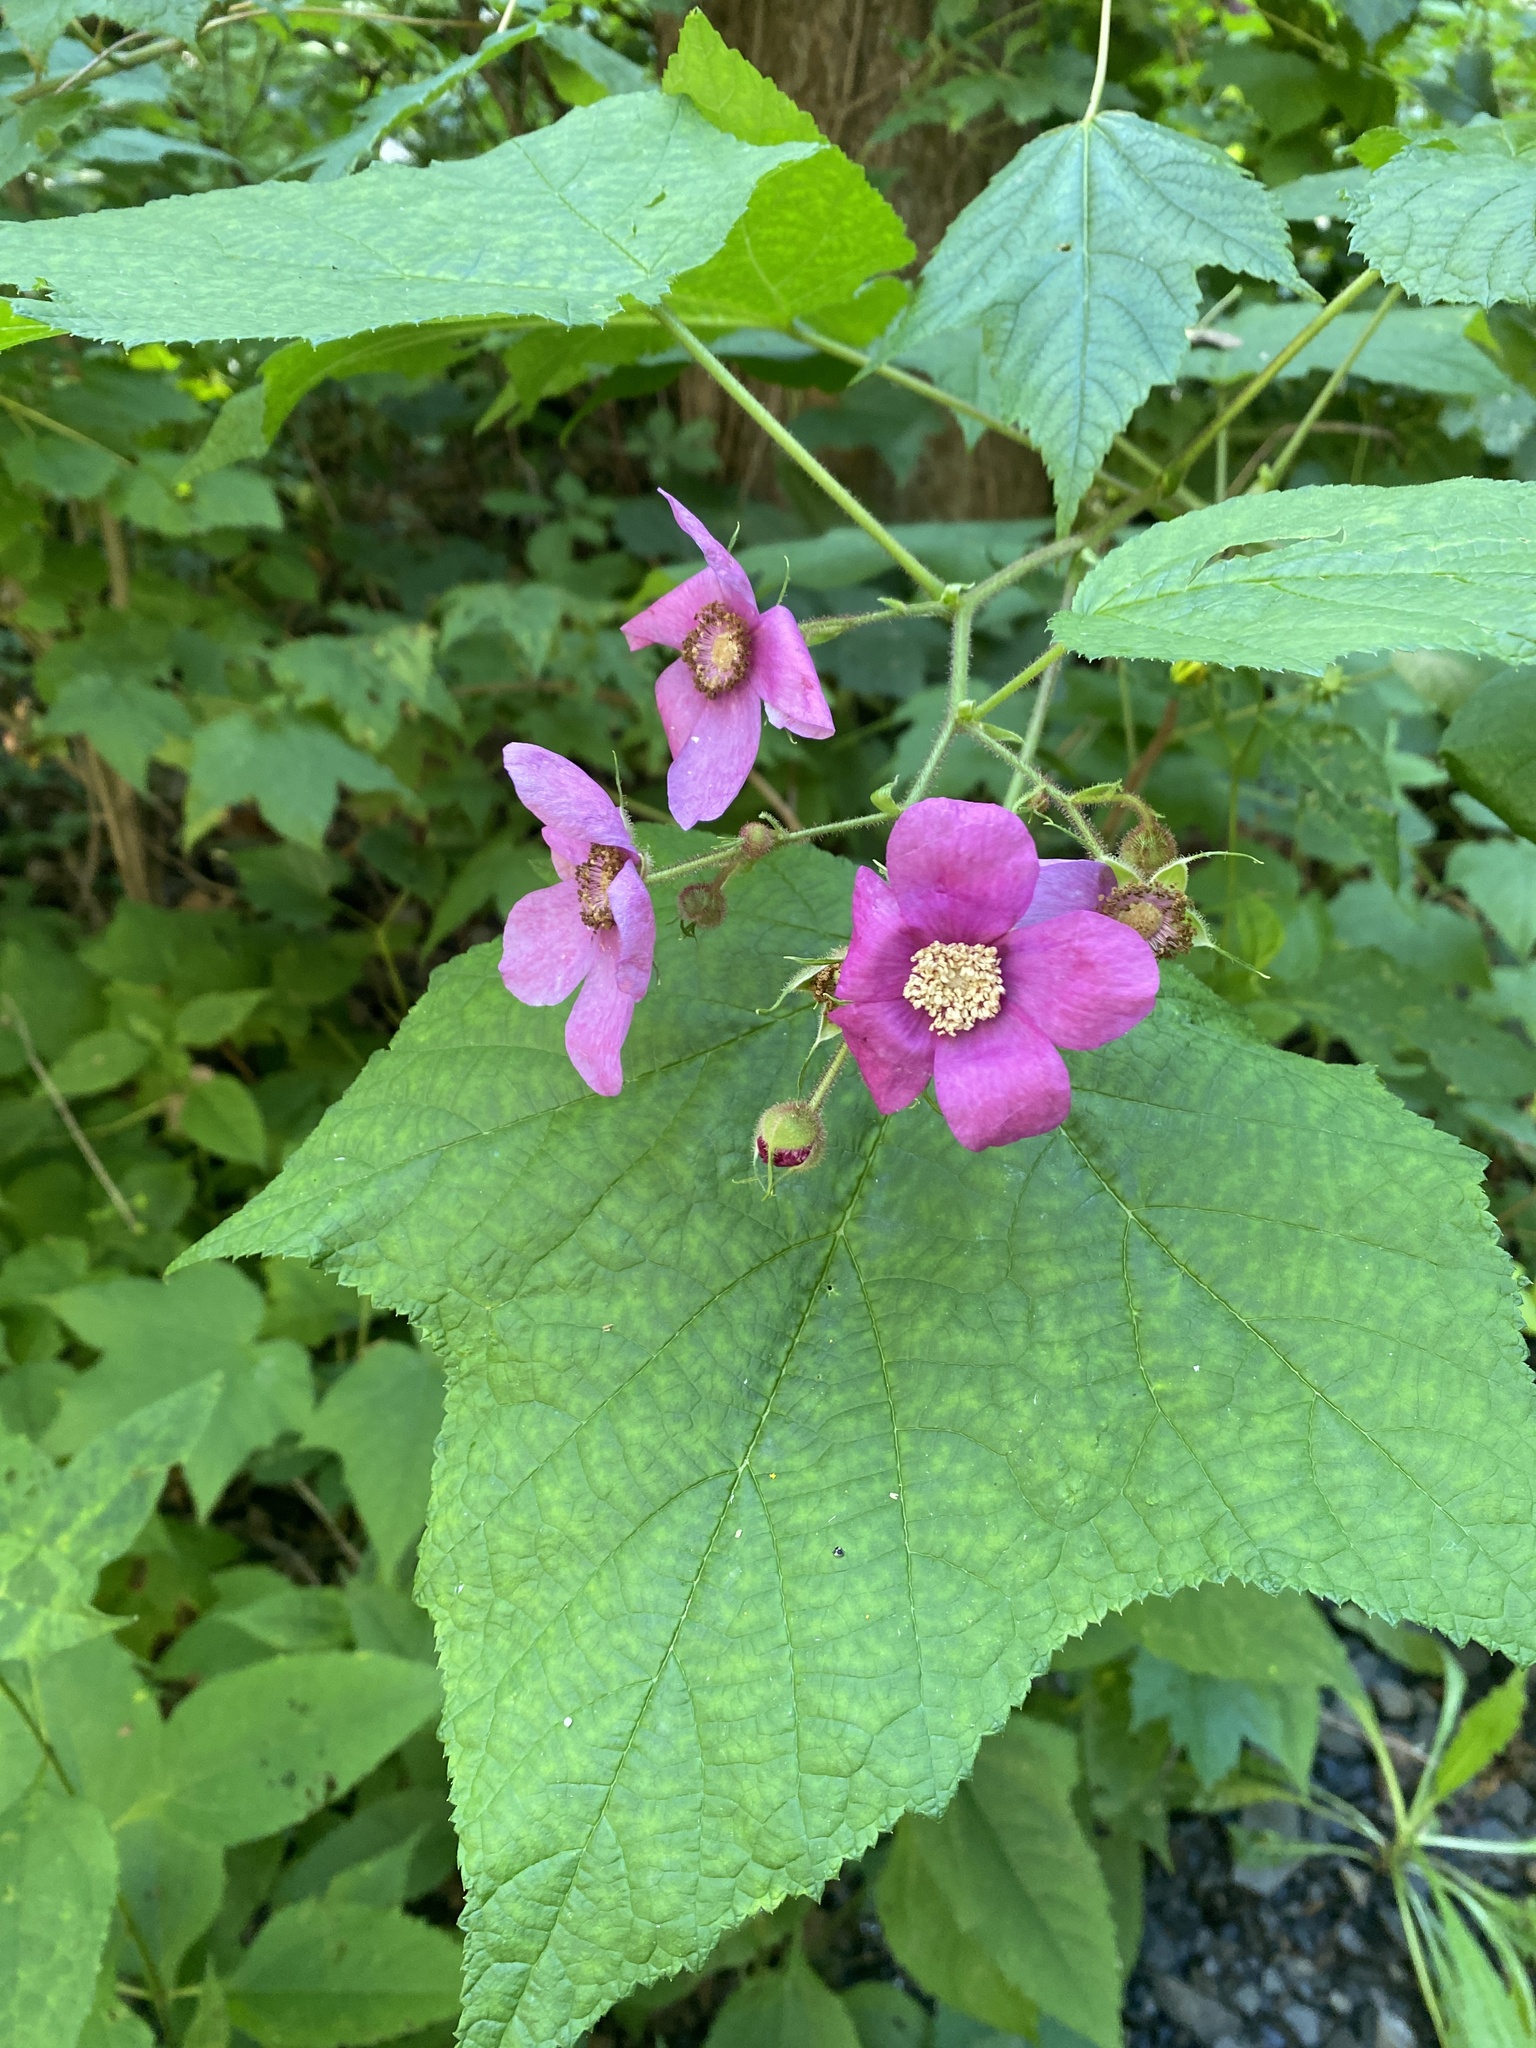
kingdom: Plantae
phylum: Tracheophyta
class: Magnoliopsida
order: Rosales
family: Rosaceae
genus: Rubus
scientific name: Rubus odoratus
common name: Purple-flowered raspberry
